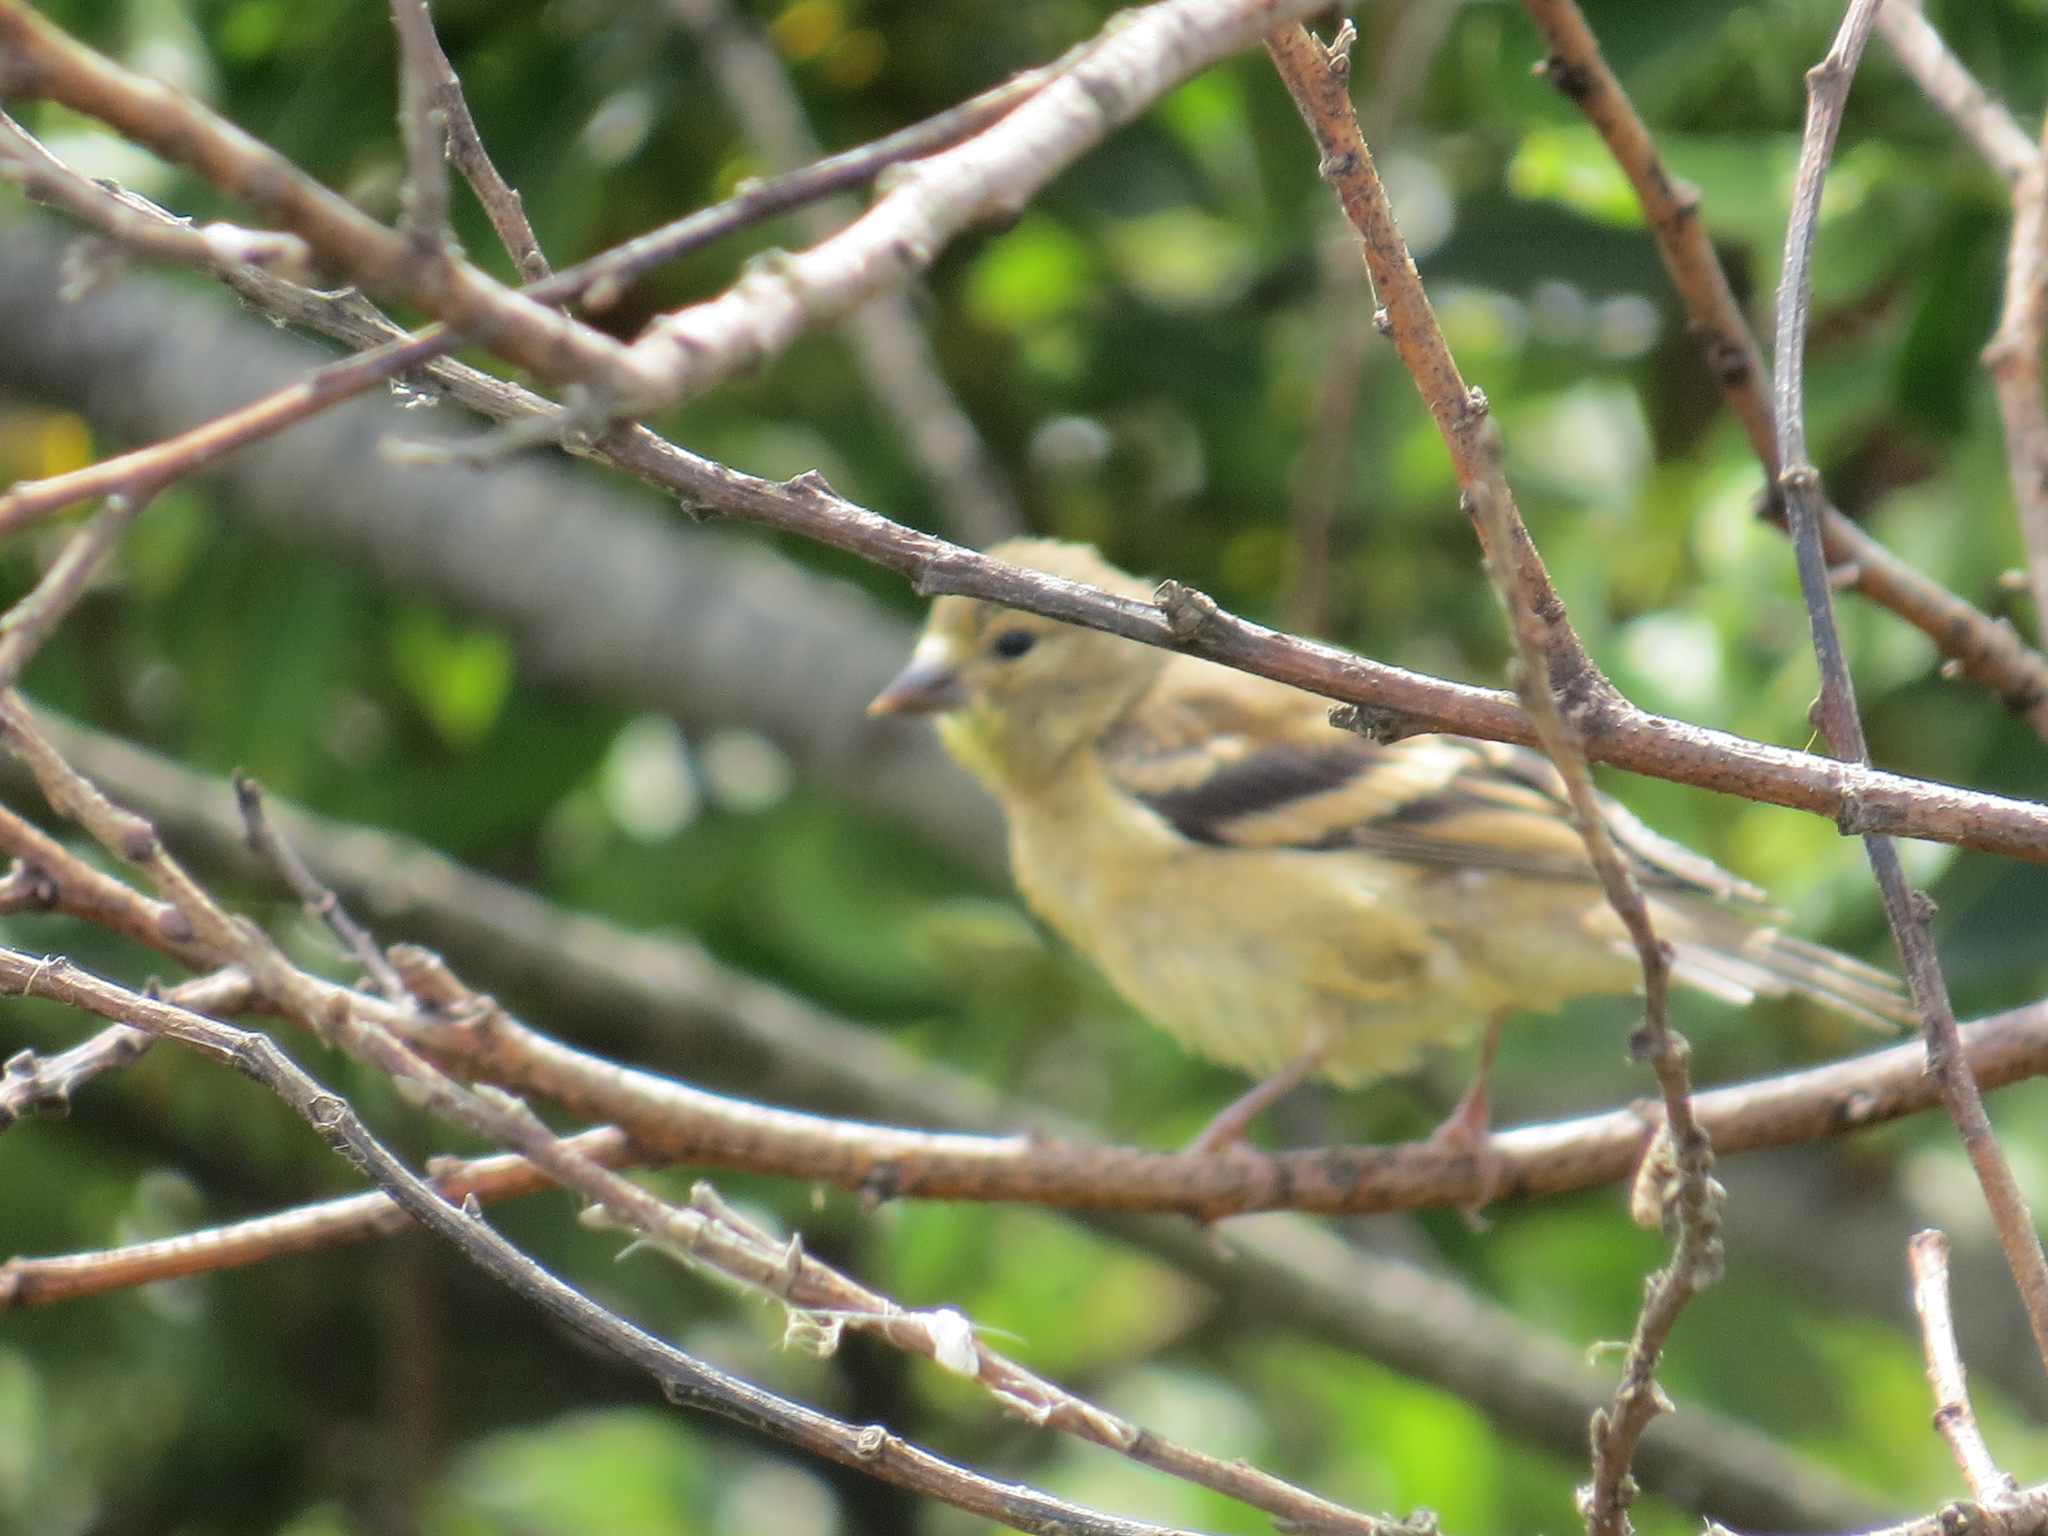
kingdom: Animalia
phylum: Chordata
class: Aves
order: Passeriformes
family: Fringillidae
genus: Spinus
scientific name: Spinus tristis
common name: American goldfinch
